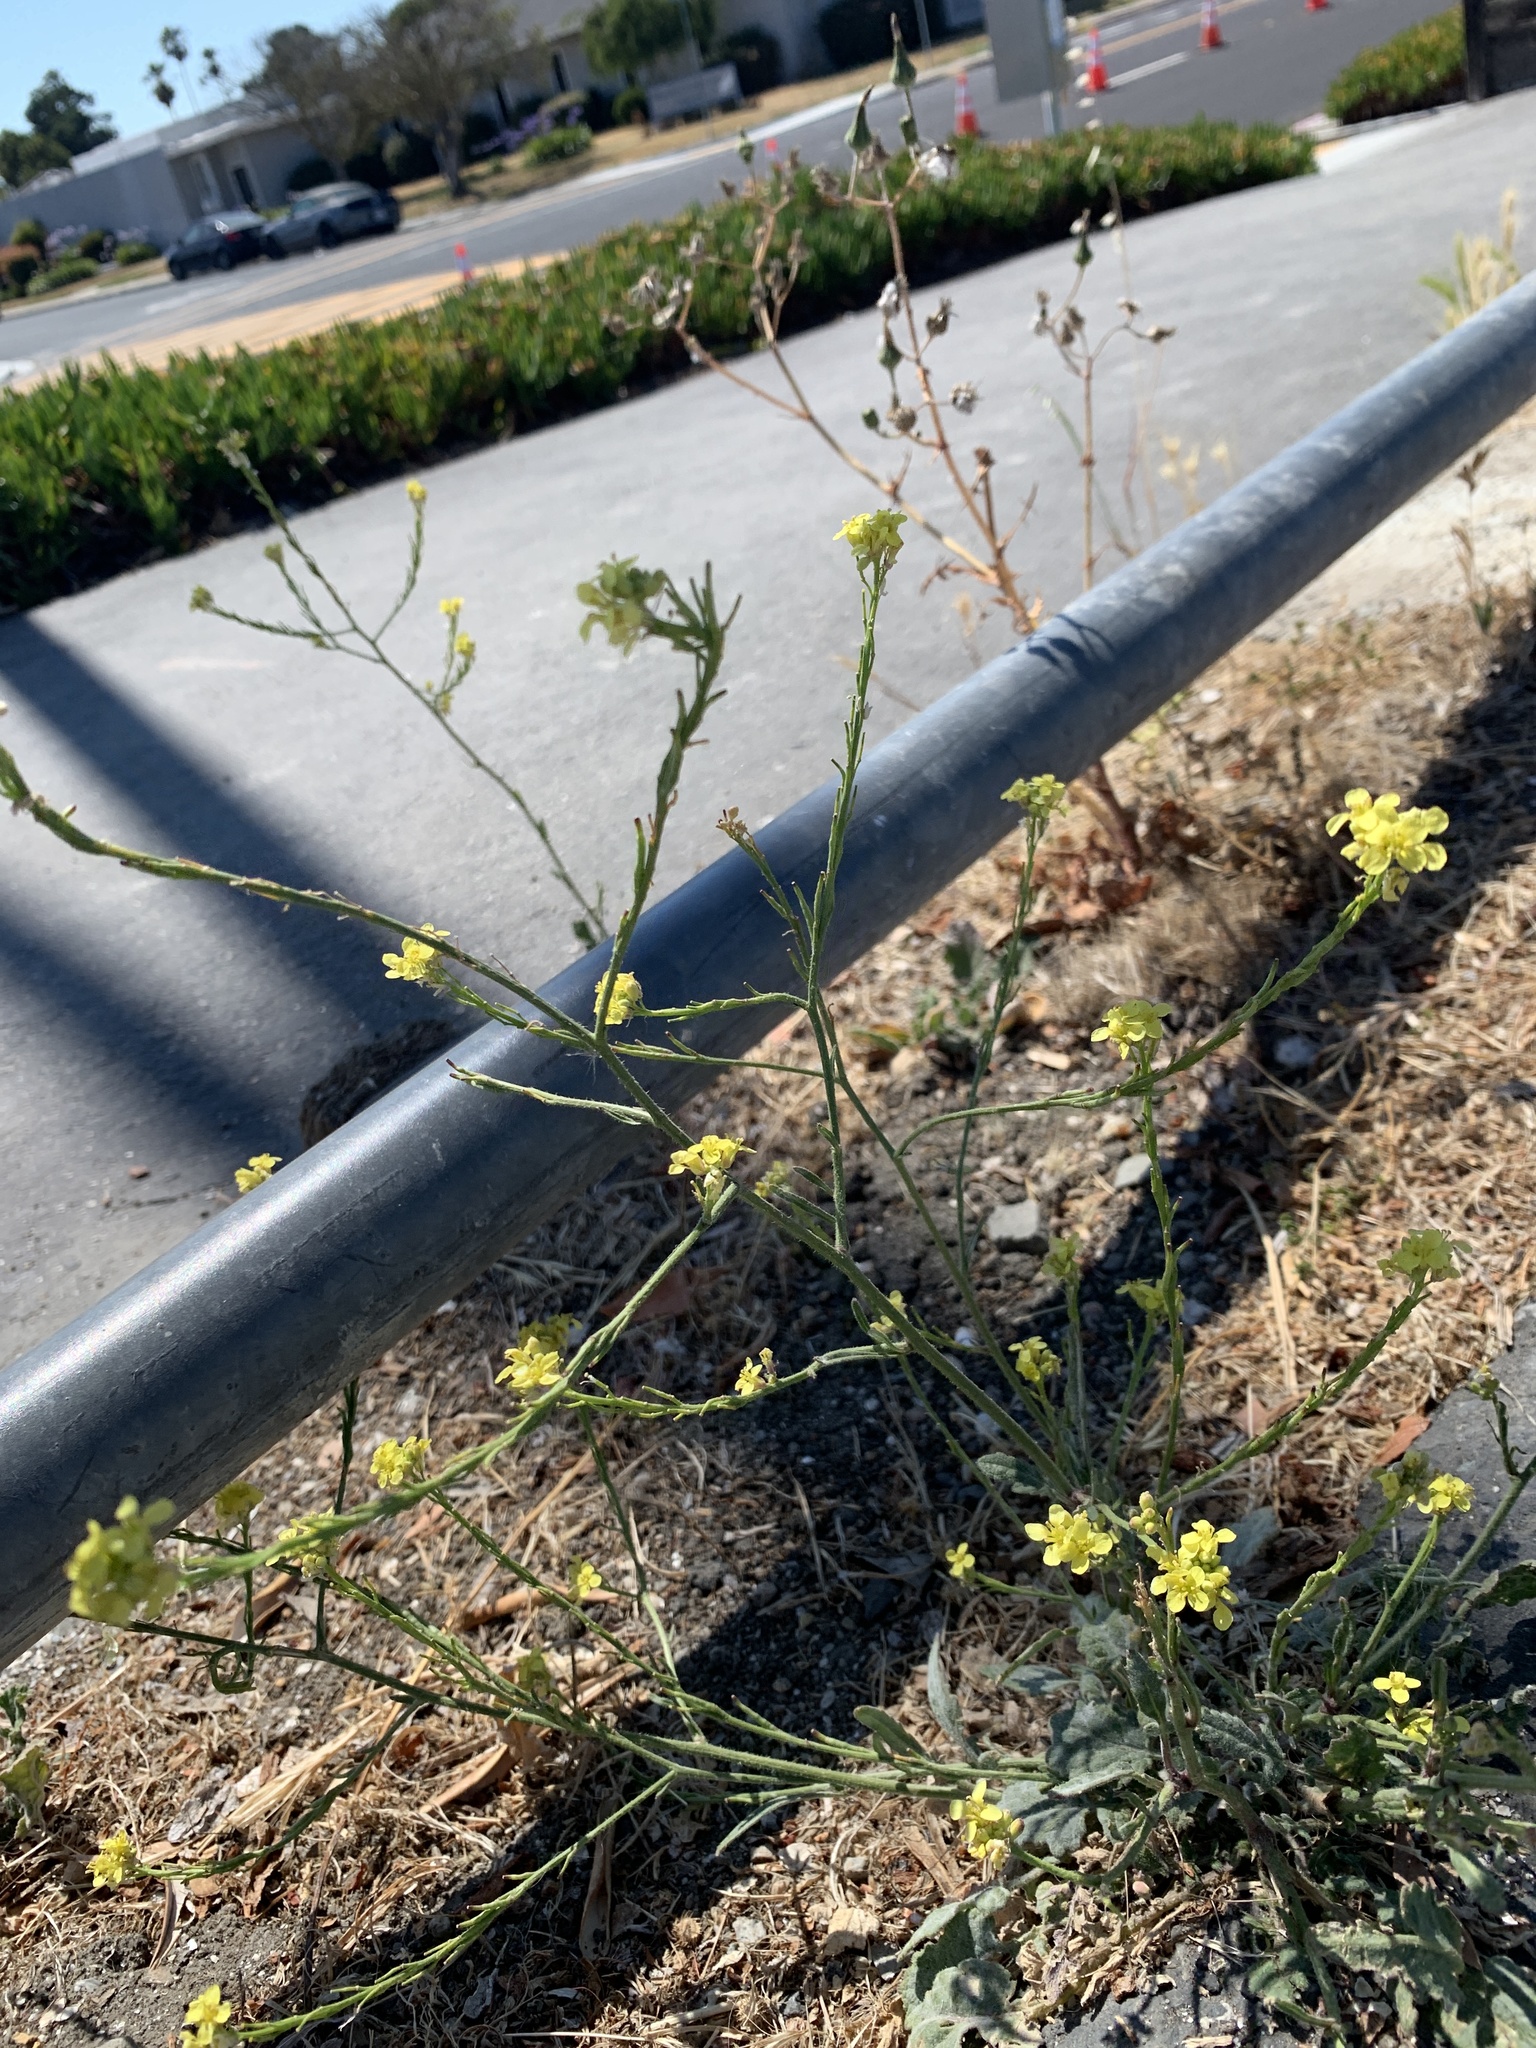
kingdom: Plantae
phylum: Tracheophyta
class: Magnoliopsida
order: Brassicales
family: Brassicaceae
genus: Hirschfeldia
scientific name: Hirschfeldia incana
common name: Hoary mustard
